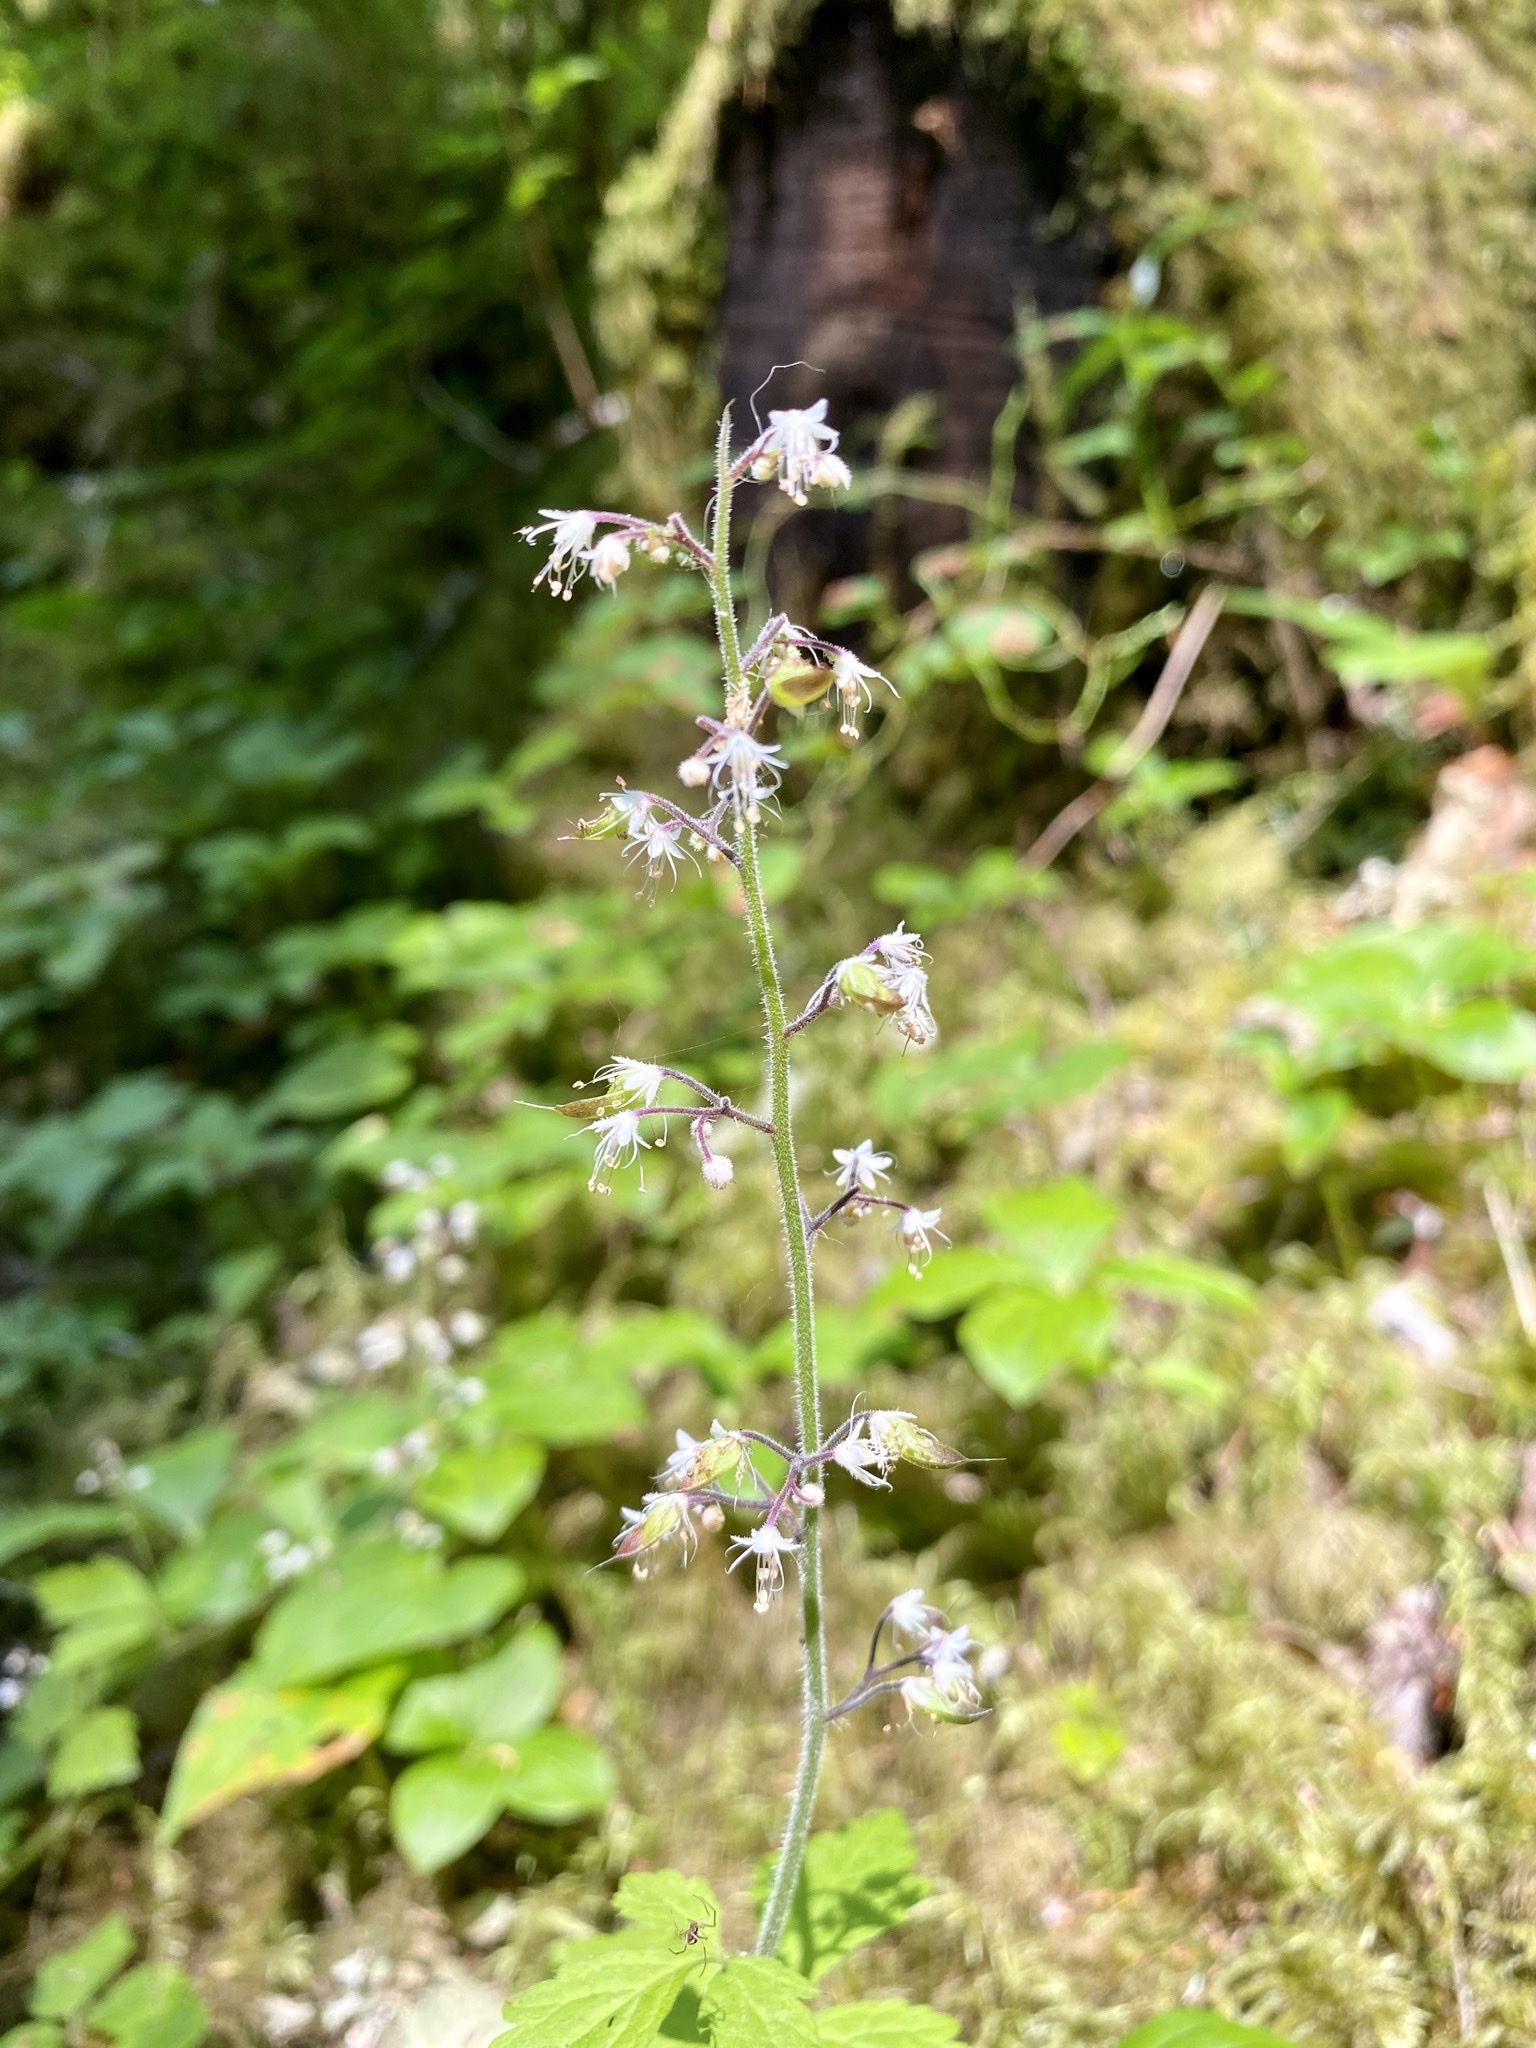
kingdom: Plantae
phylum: Tracheophyta
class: Magnoliopsida
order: Saxifragales
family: Saxifragaceae
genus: Tiarella
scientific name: Tiarella trifoliata
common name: Sugar-scoop
